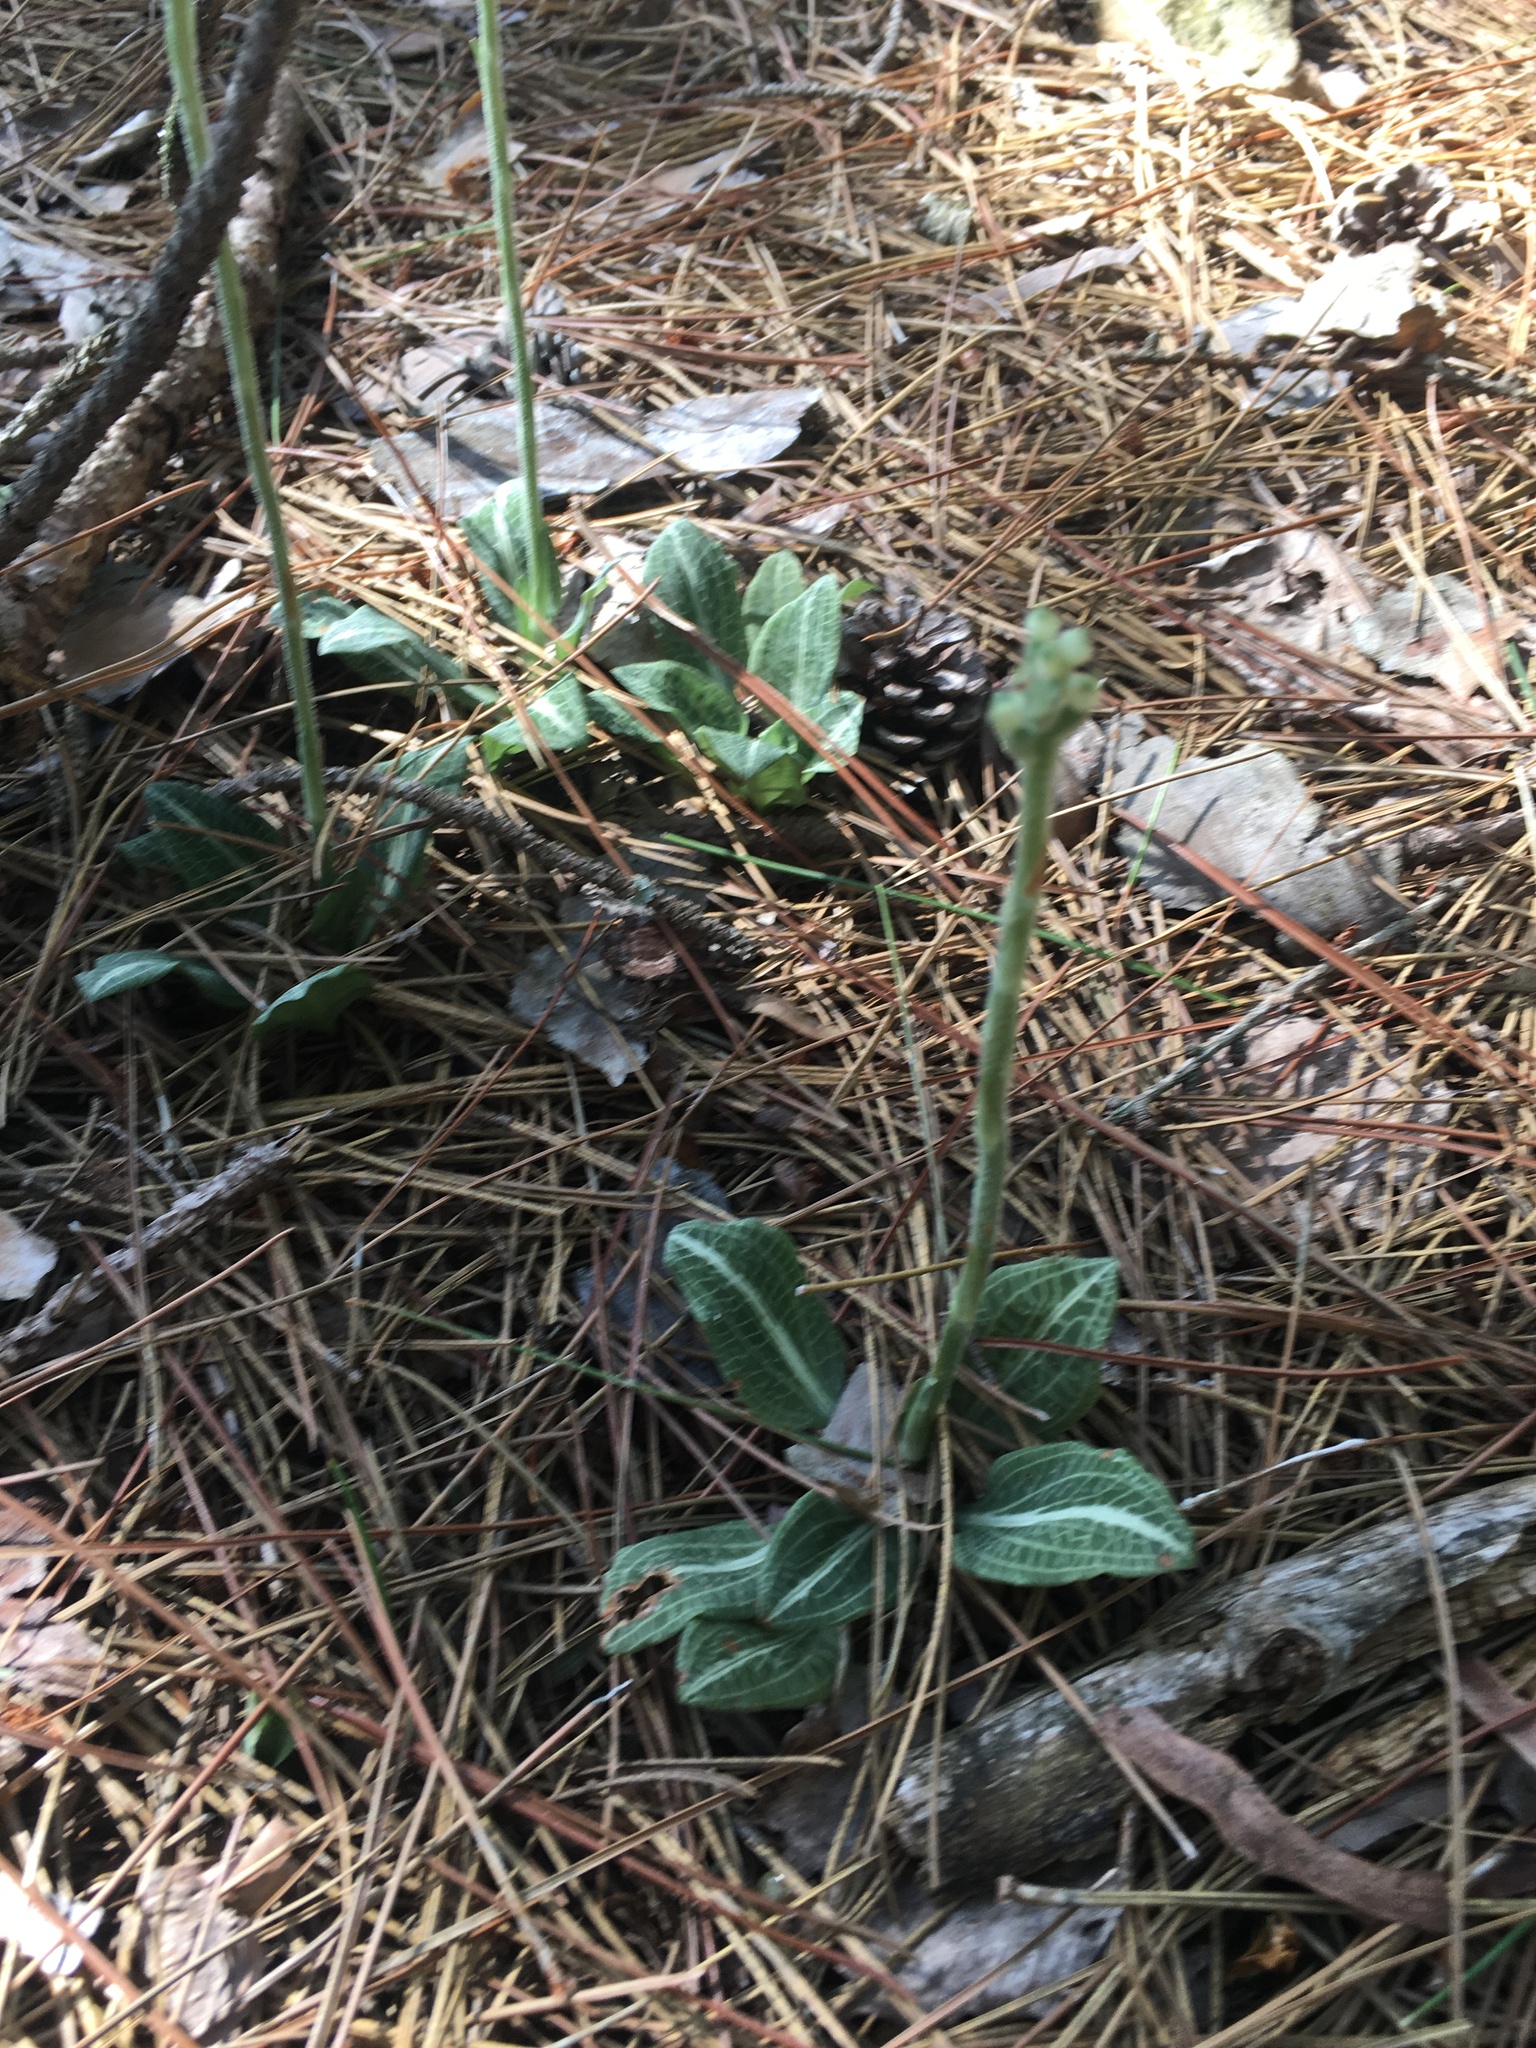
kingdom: Plantae
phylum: Tracheophyta
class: Liliopsida
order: Asparagales
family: Orchidaceae
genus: Goodyera
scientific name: Goodyera pubescens
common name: Downy rattlesnake-plantain
